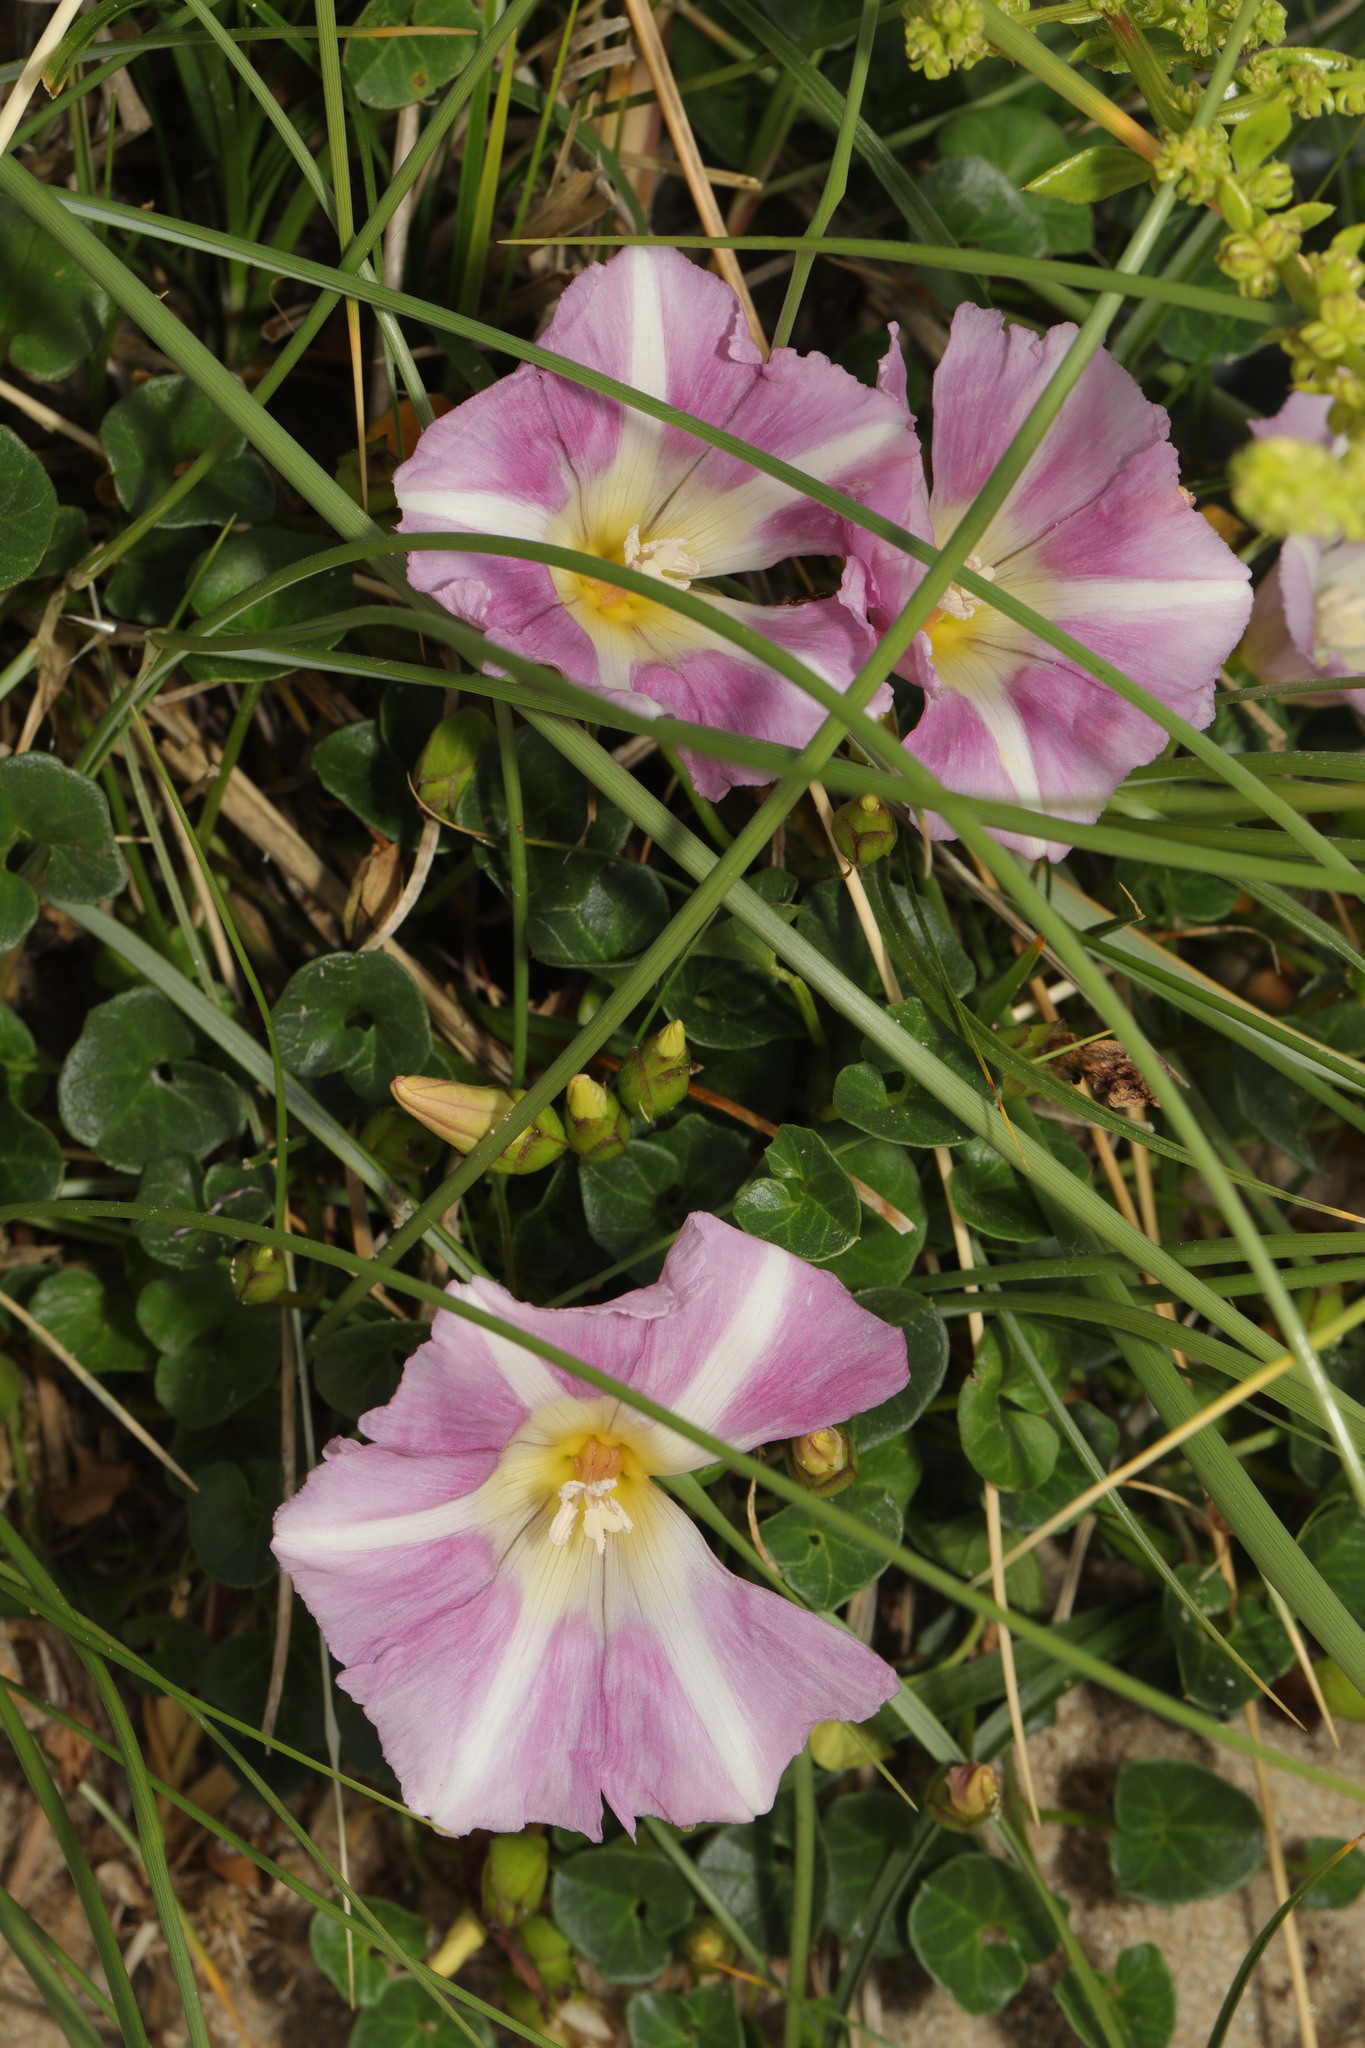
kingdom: Plantae
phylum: Tracheophyta
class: Magnoliopsida
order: Solanales
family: Convolvulaceae
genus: Calystegia
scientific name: Calystegia soldanella
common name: Sea bindweed
